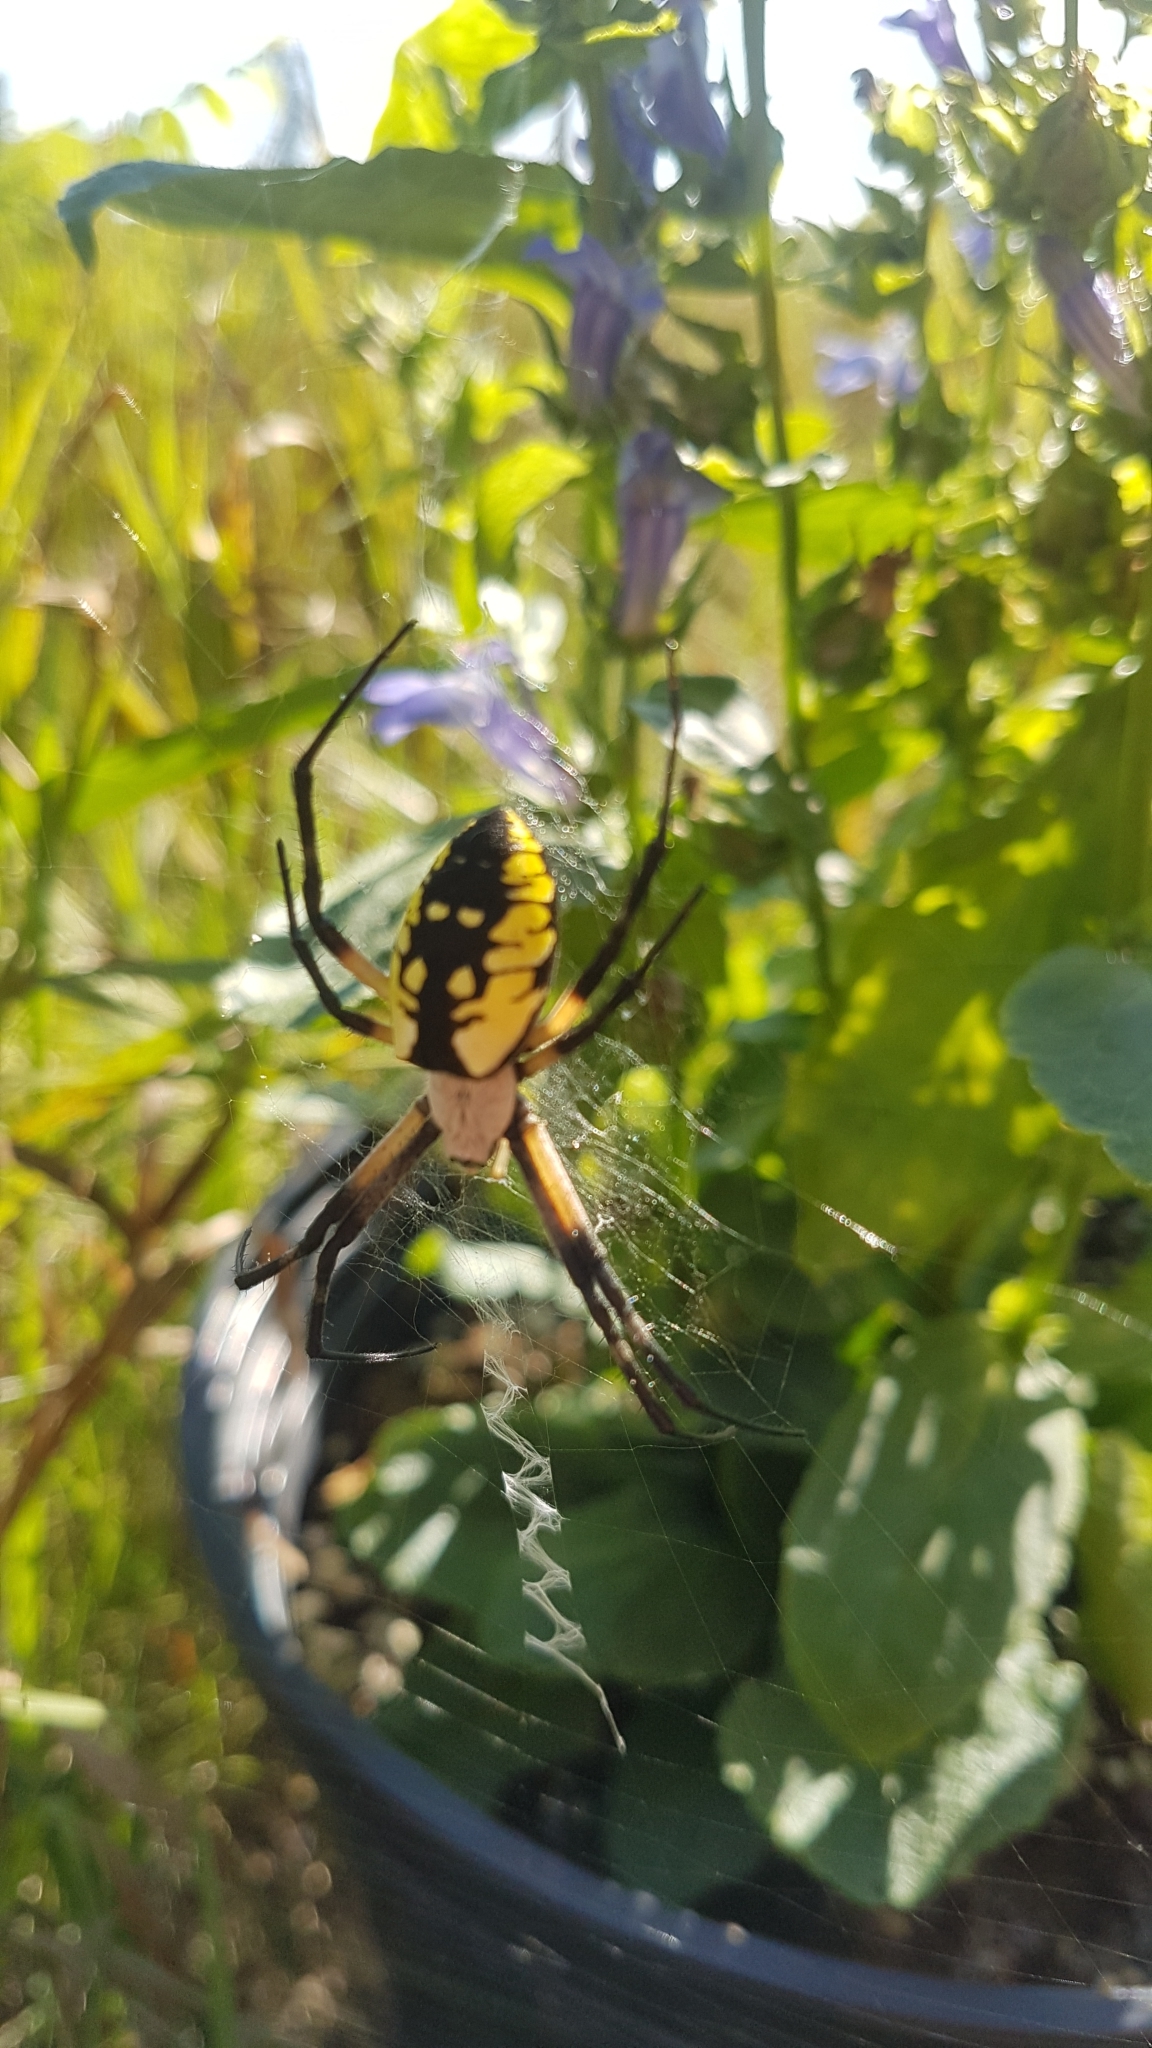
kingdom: Animalia
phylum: Arthropoda
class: Arachnida
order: Araneae
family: Araneidae
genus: Argiope
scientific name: Argiope aurantia
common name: Orb weavers
